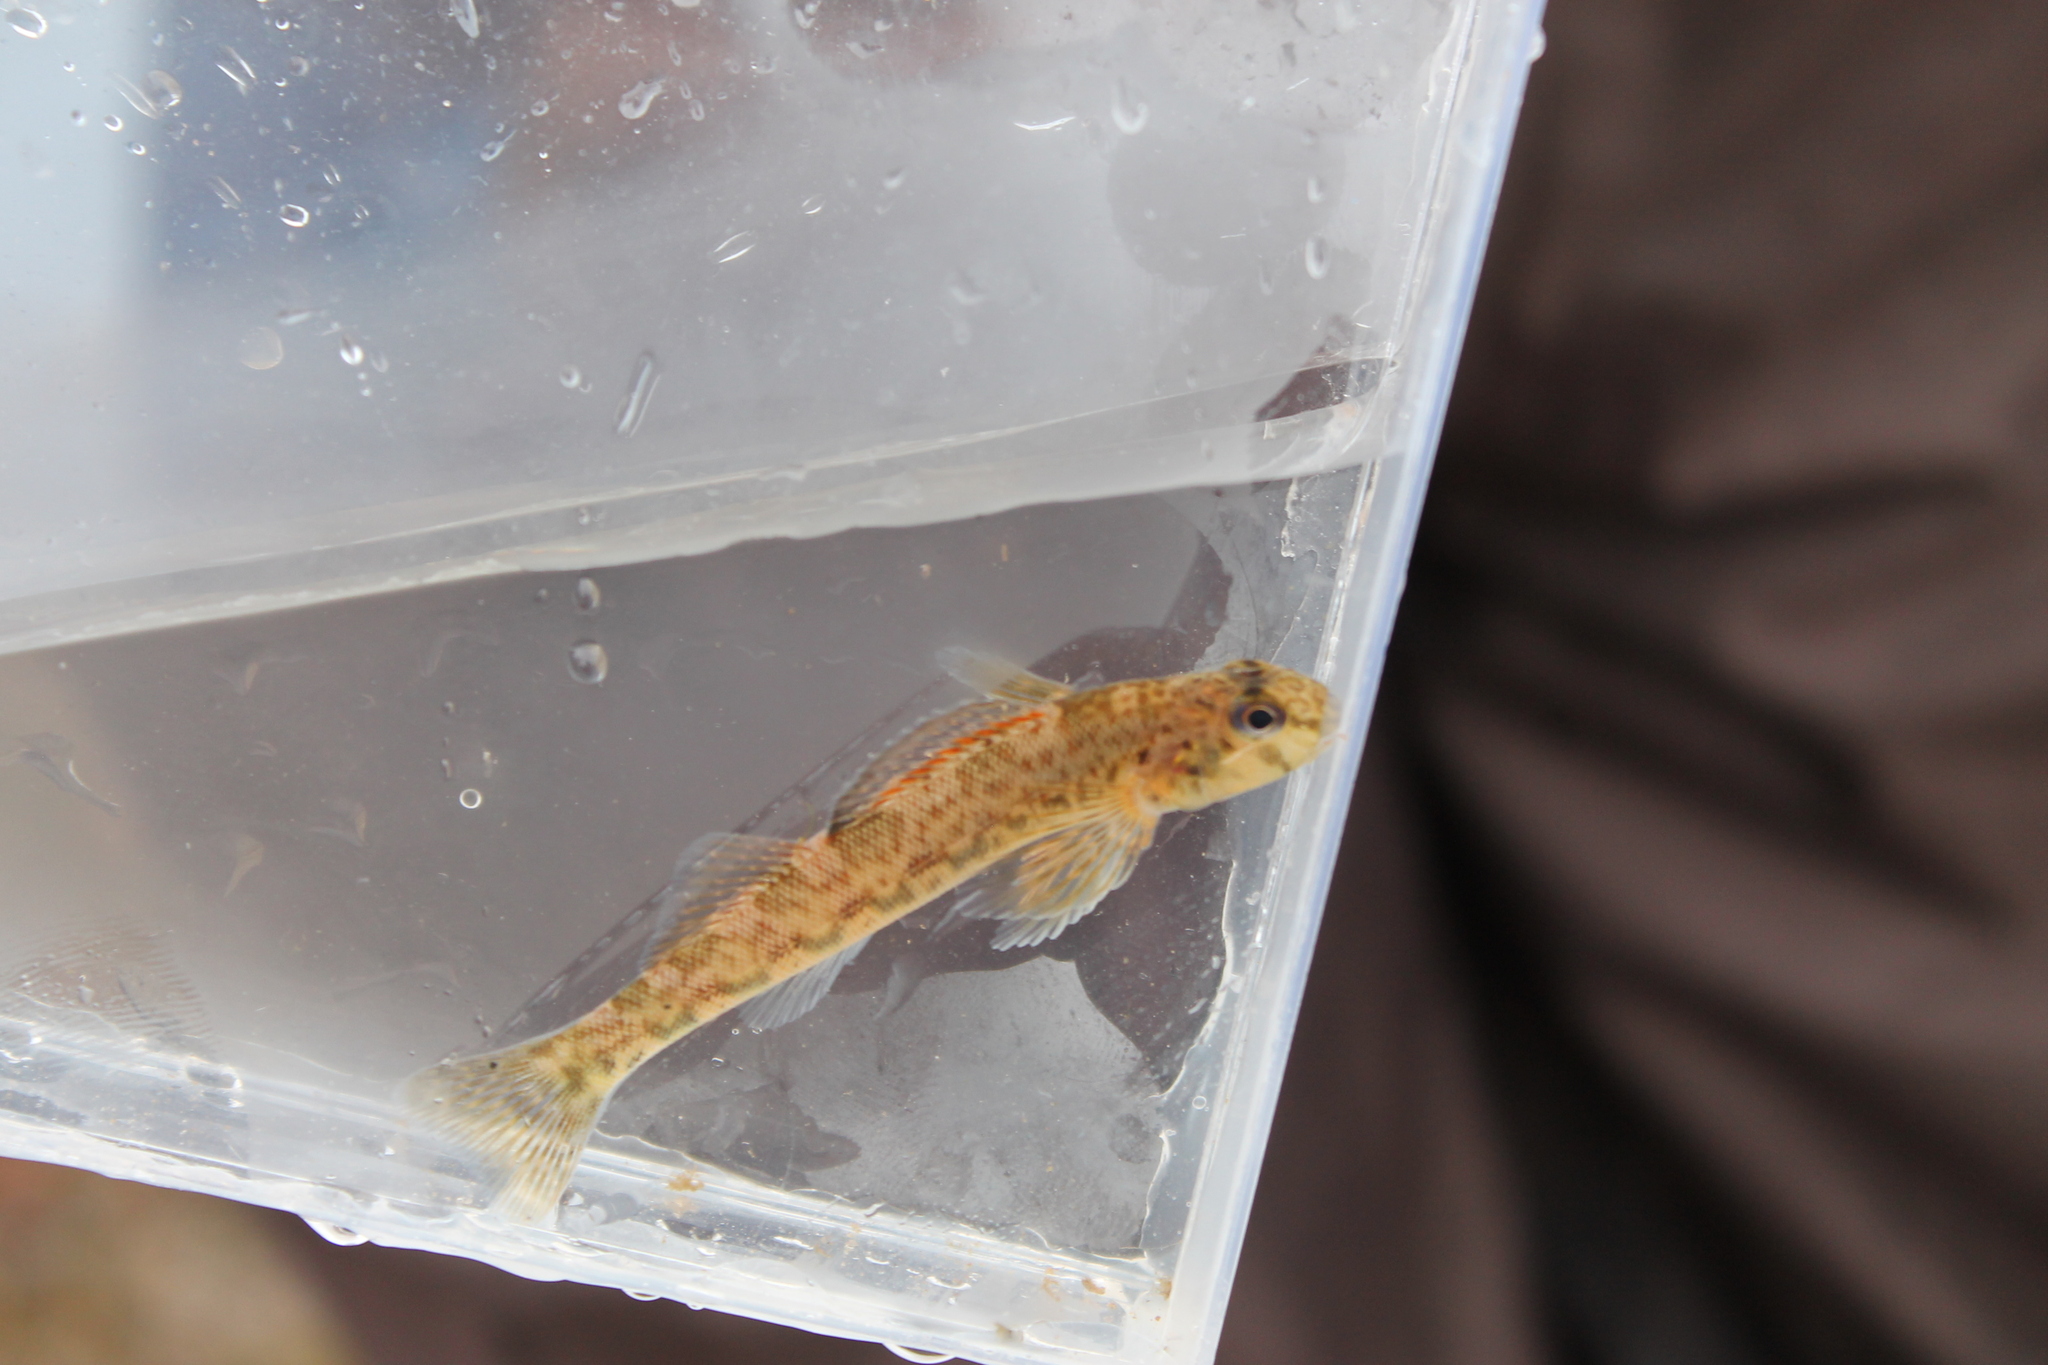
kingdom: Animalia
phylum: Chordata
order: Perciformes
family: Percidae
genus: Etheostoma
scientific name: Etheostoma blennioides
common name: Greenside darter
